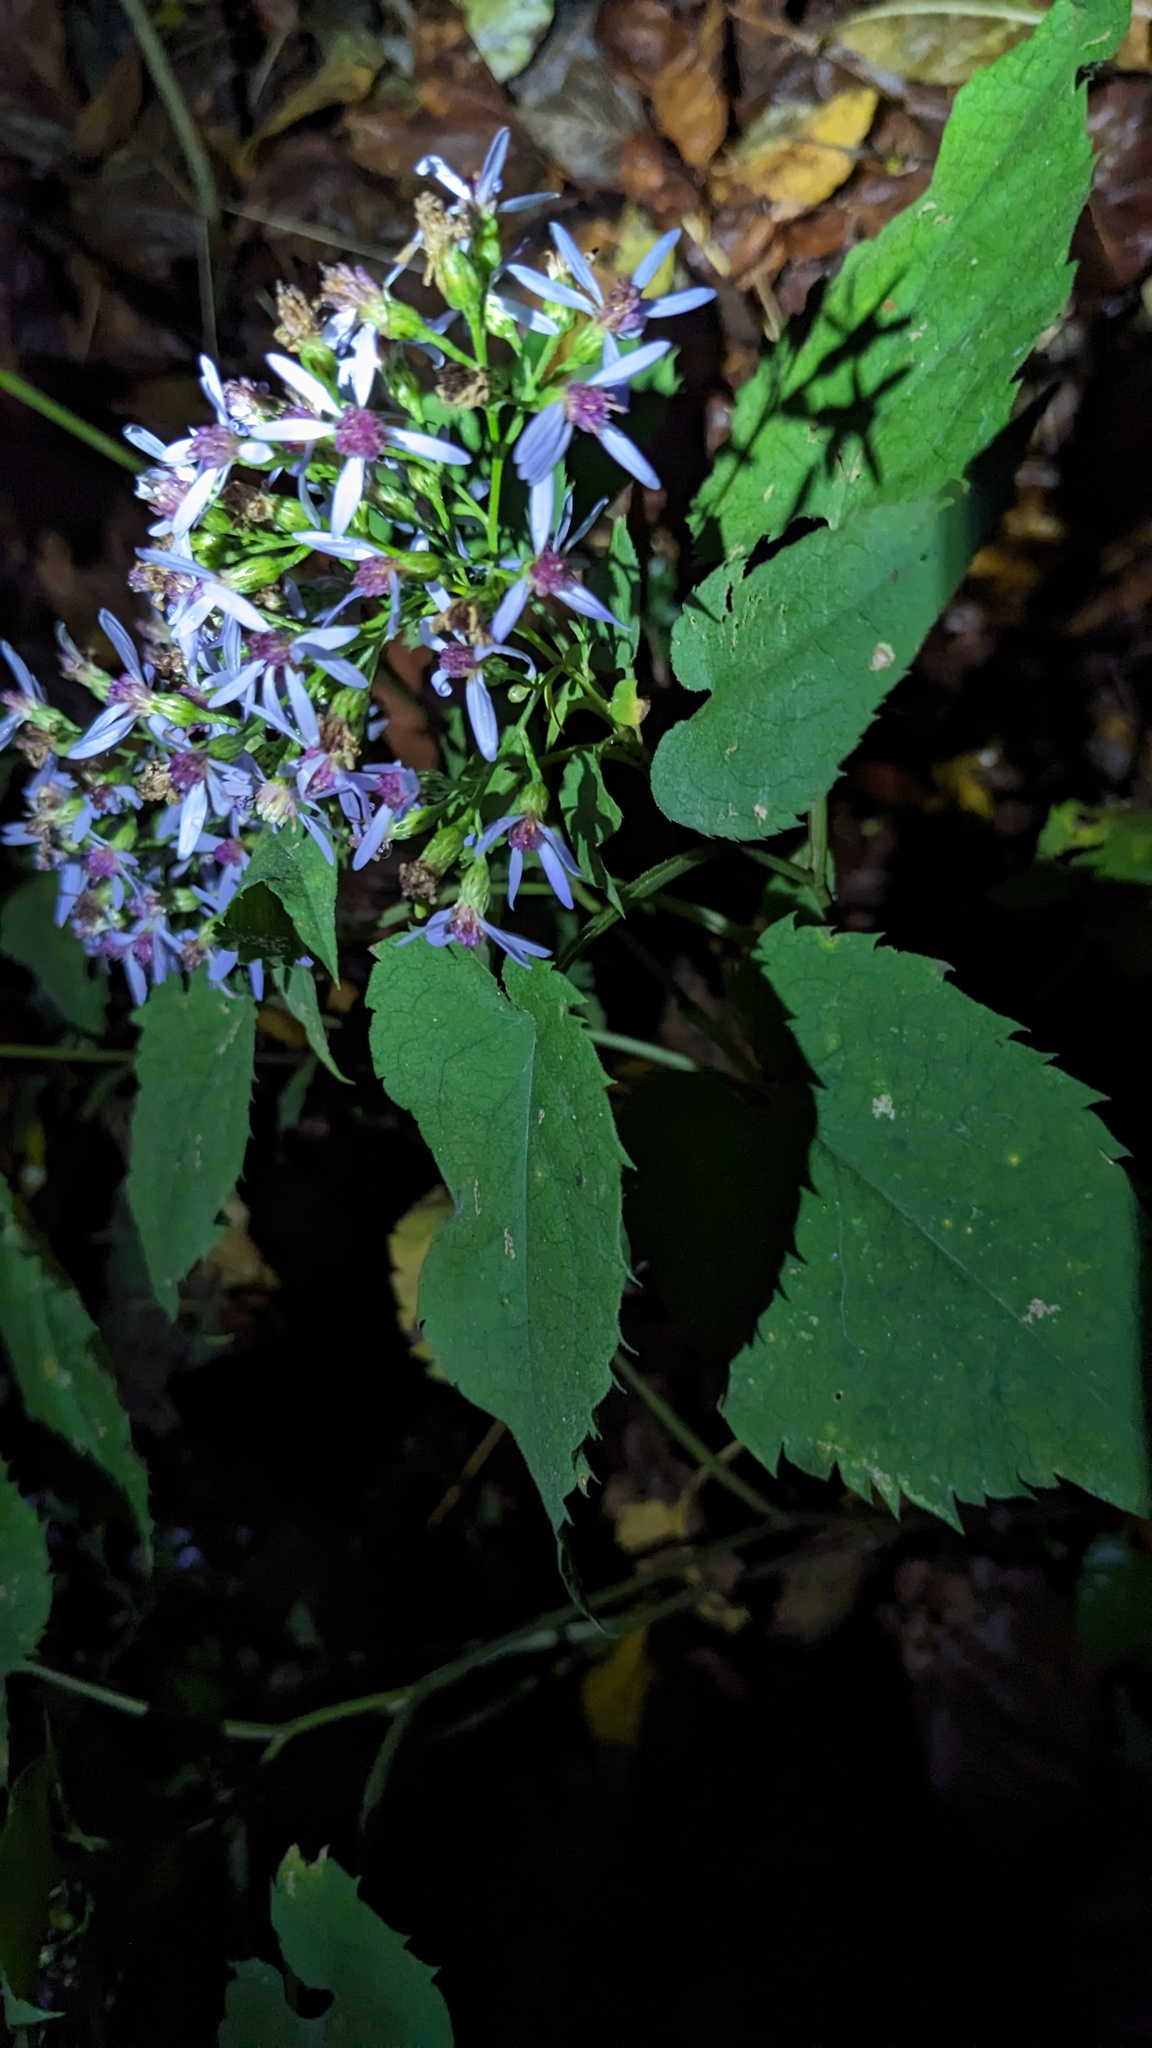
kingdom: Plantae
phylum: Tracheophyta
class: Magnoliopsida
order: Asterales
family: Asteraceae
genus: Symphyotrichum
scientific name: Symphyotrichum cordifolium
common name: Beeweed
